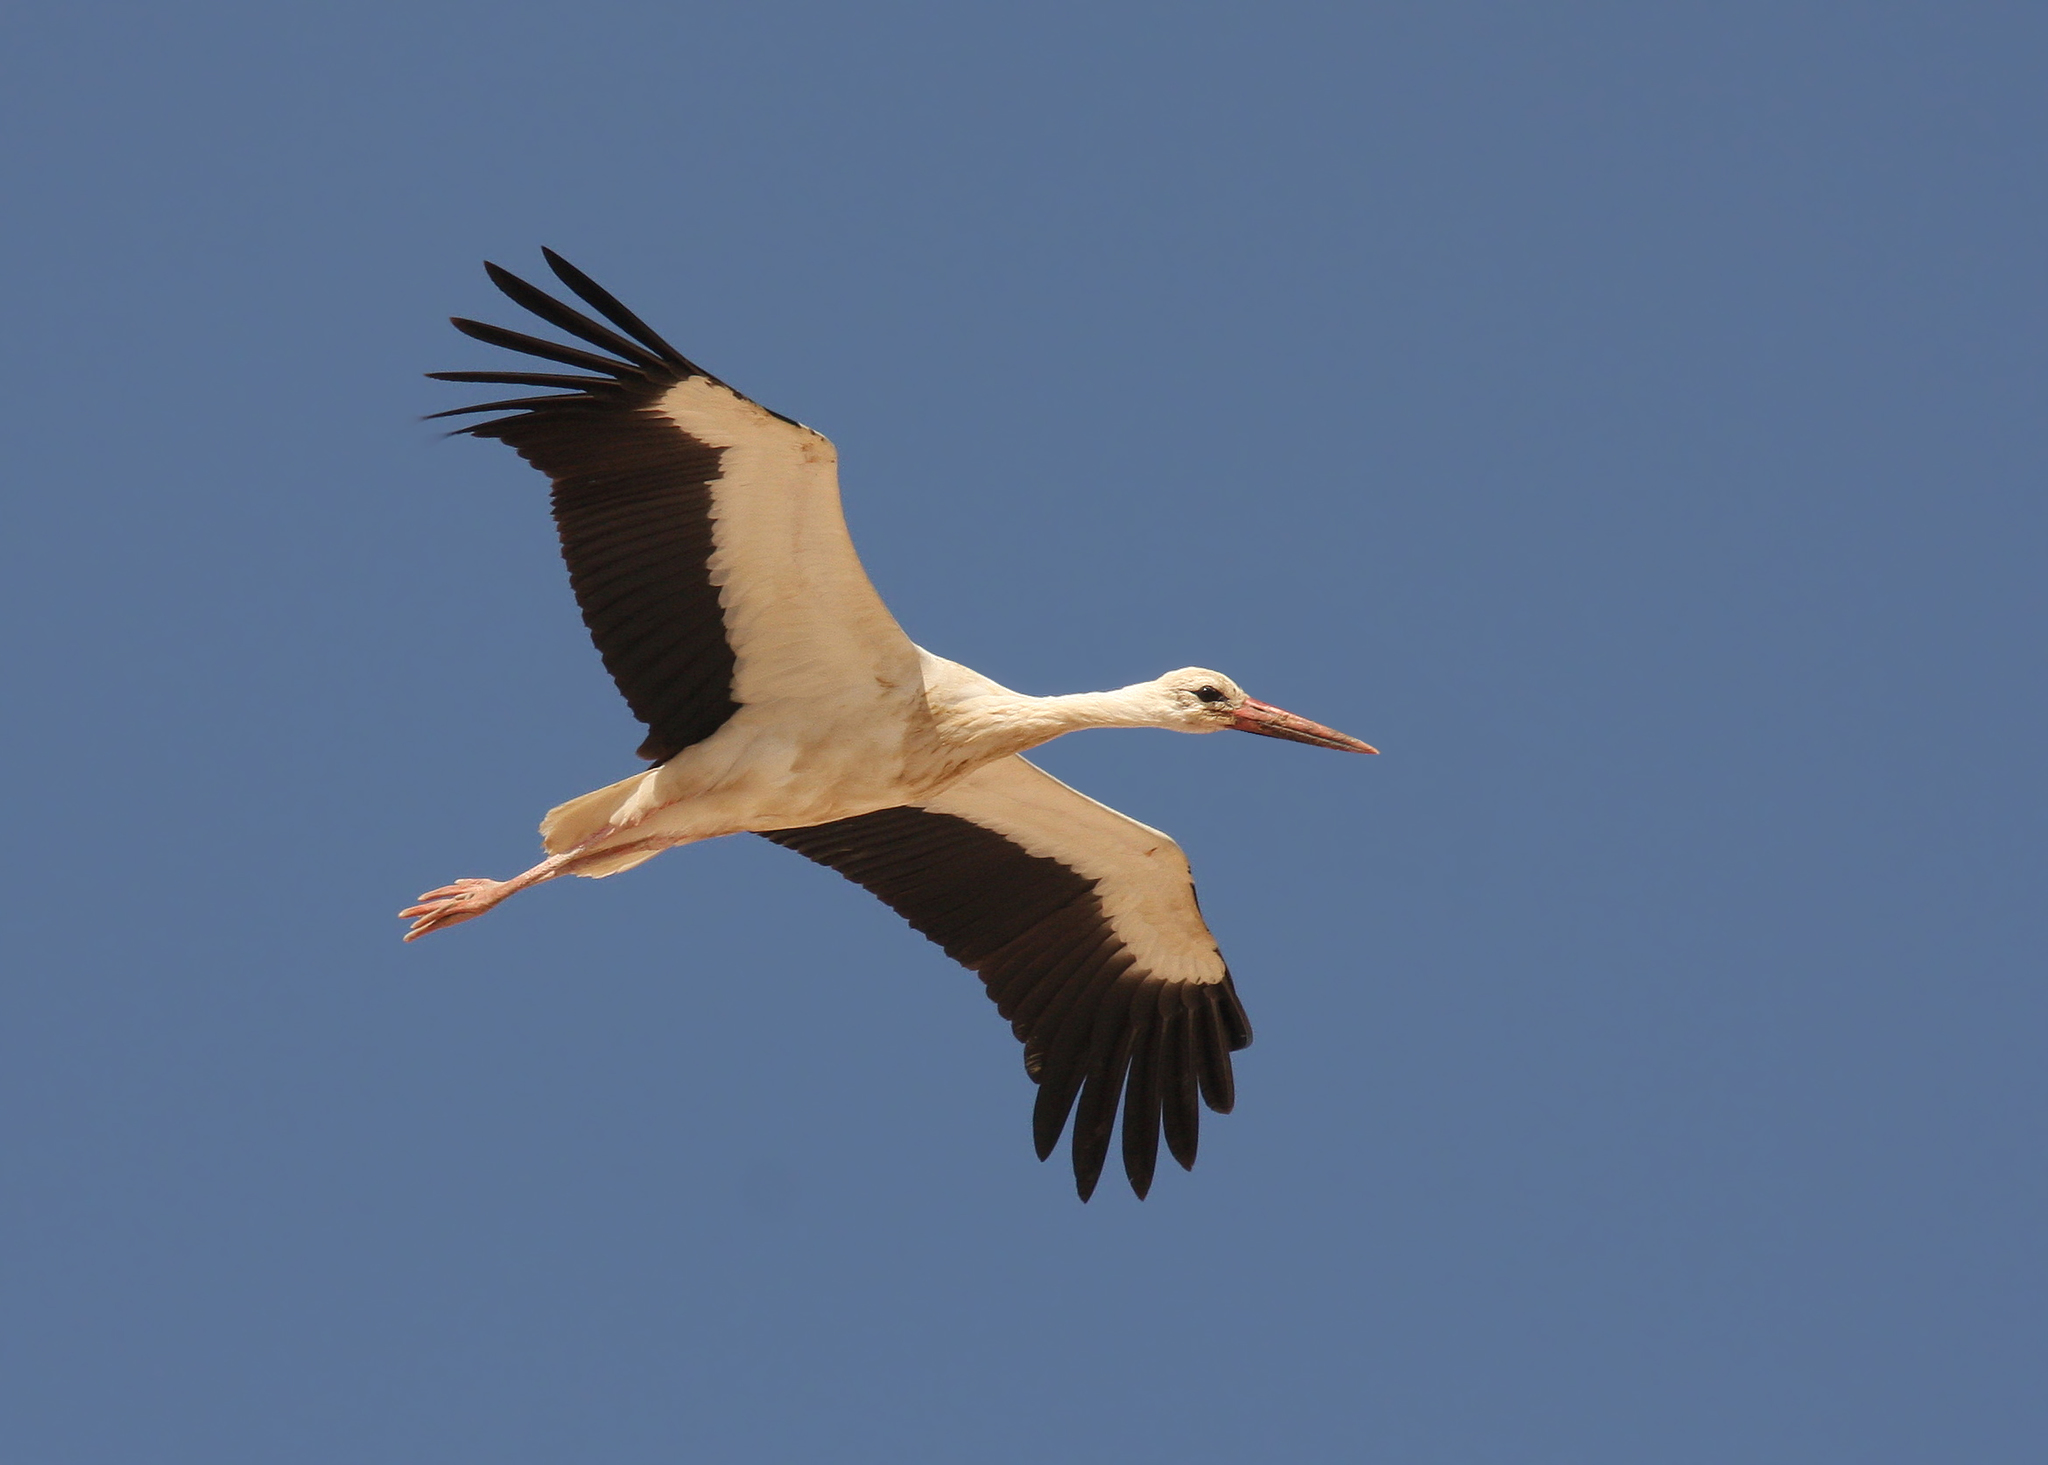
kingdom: Animalia
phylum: Chordata
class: Aves
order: Ciconiiformes
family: Ciconiidae
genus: Ciconia
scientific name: Ciconia ciconia
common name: White stork
